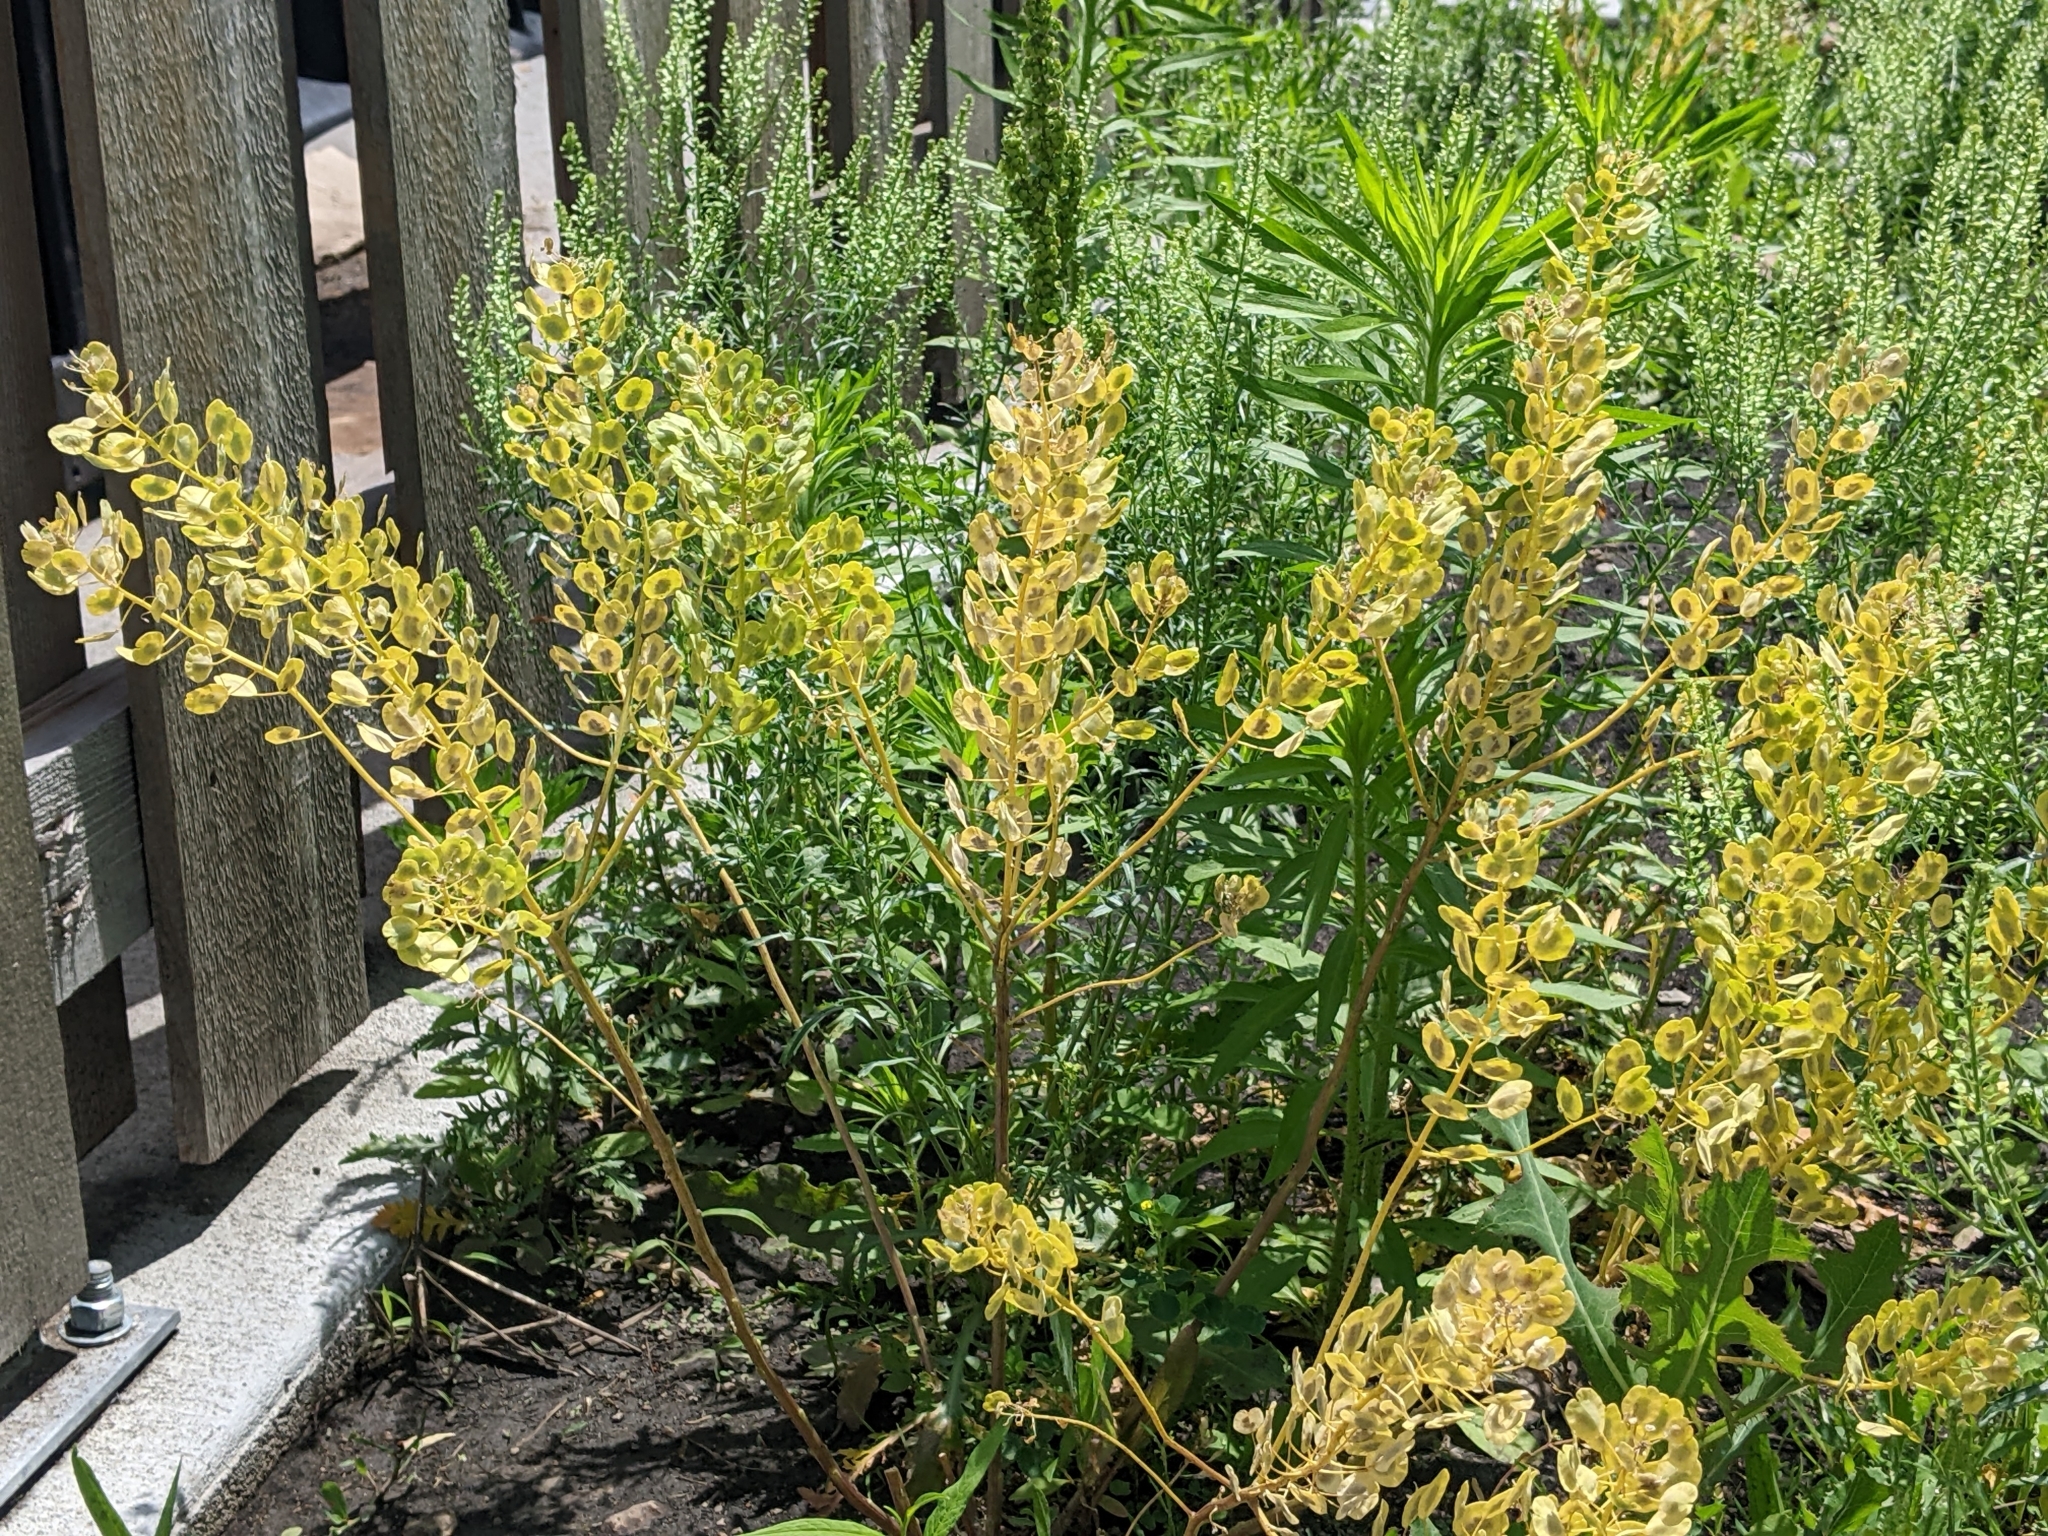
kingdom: Plantae
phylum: Tracheophyta
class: Magnoliopsida
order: Brassicales
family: Brassicaceae
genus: Thlaspi
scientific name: Thlaspi arvense
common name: Field pennycress
